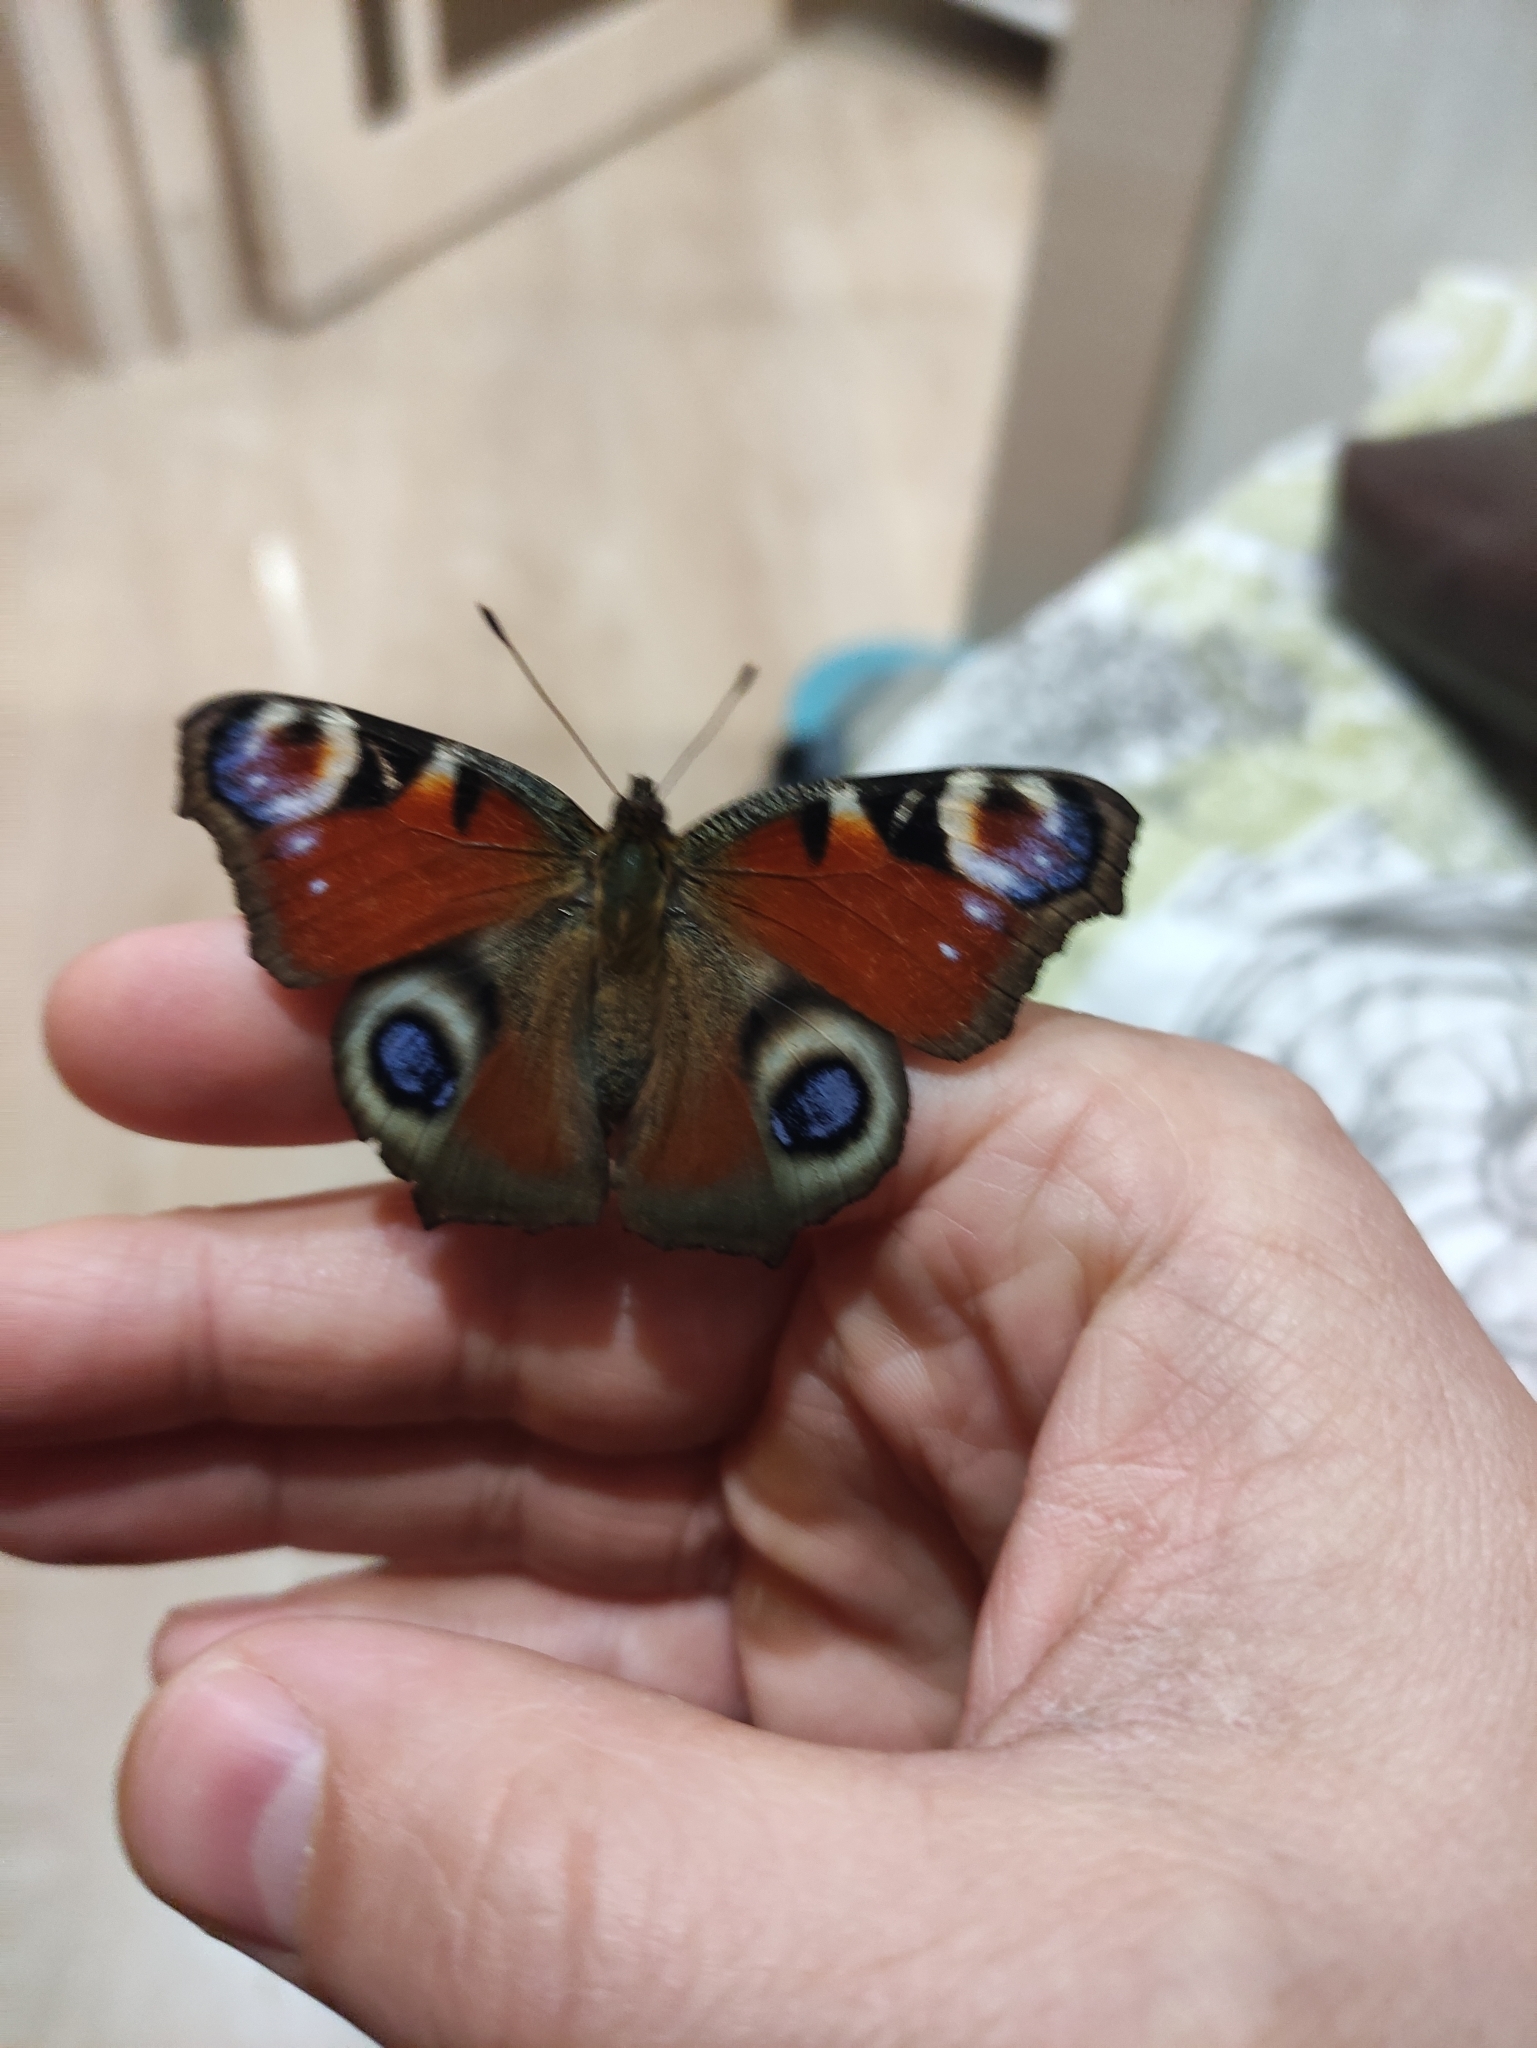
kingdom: Animalia
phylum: Arthropoda
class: Insecta
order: Lepidoptera
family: Nymphalidae
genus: Aglais
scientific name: Aglais io
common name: Peacock
